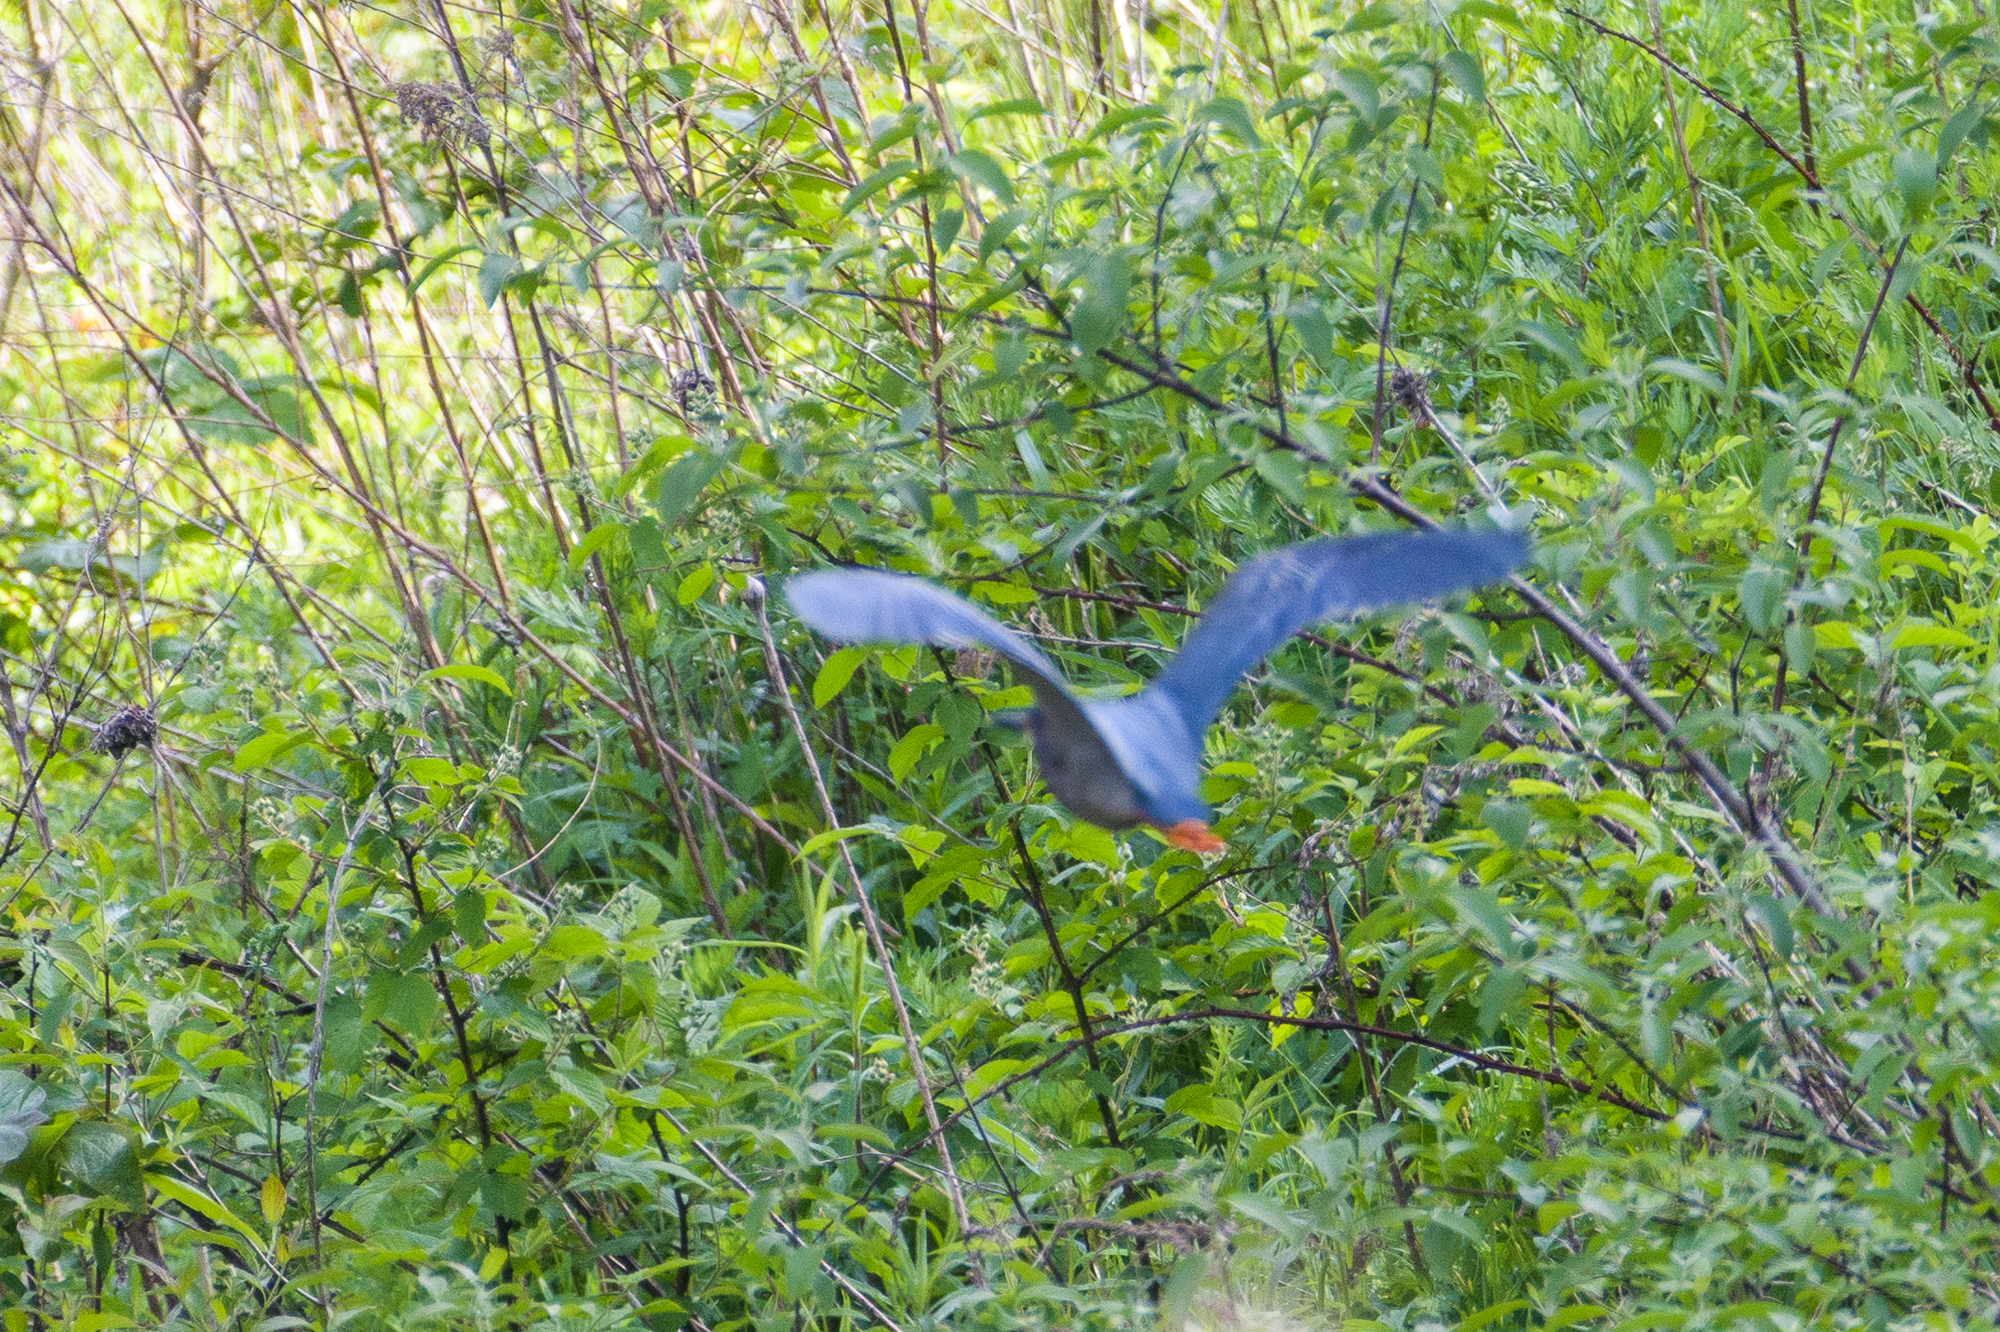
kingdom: Animalia
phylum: Chordata
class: Aves
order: Pelecaniformes
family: Ardeidae
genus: Butorides
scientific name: Butorides virescens
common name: Green heron
